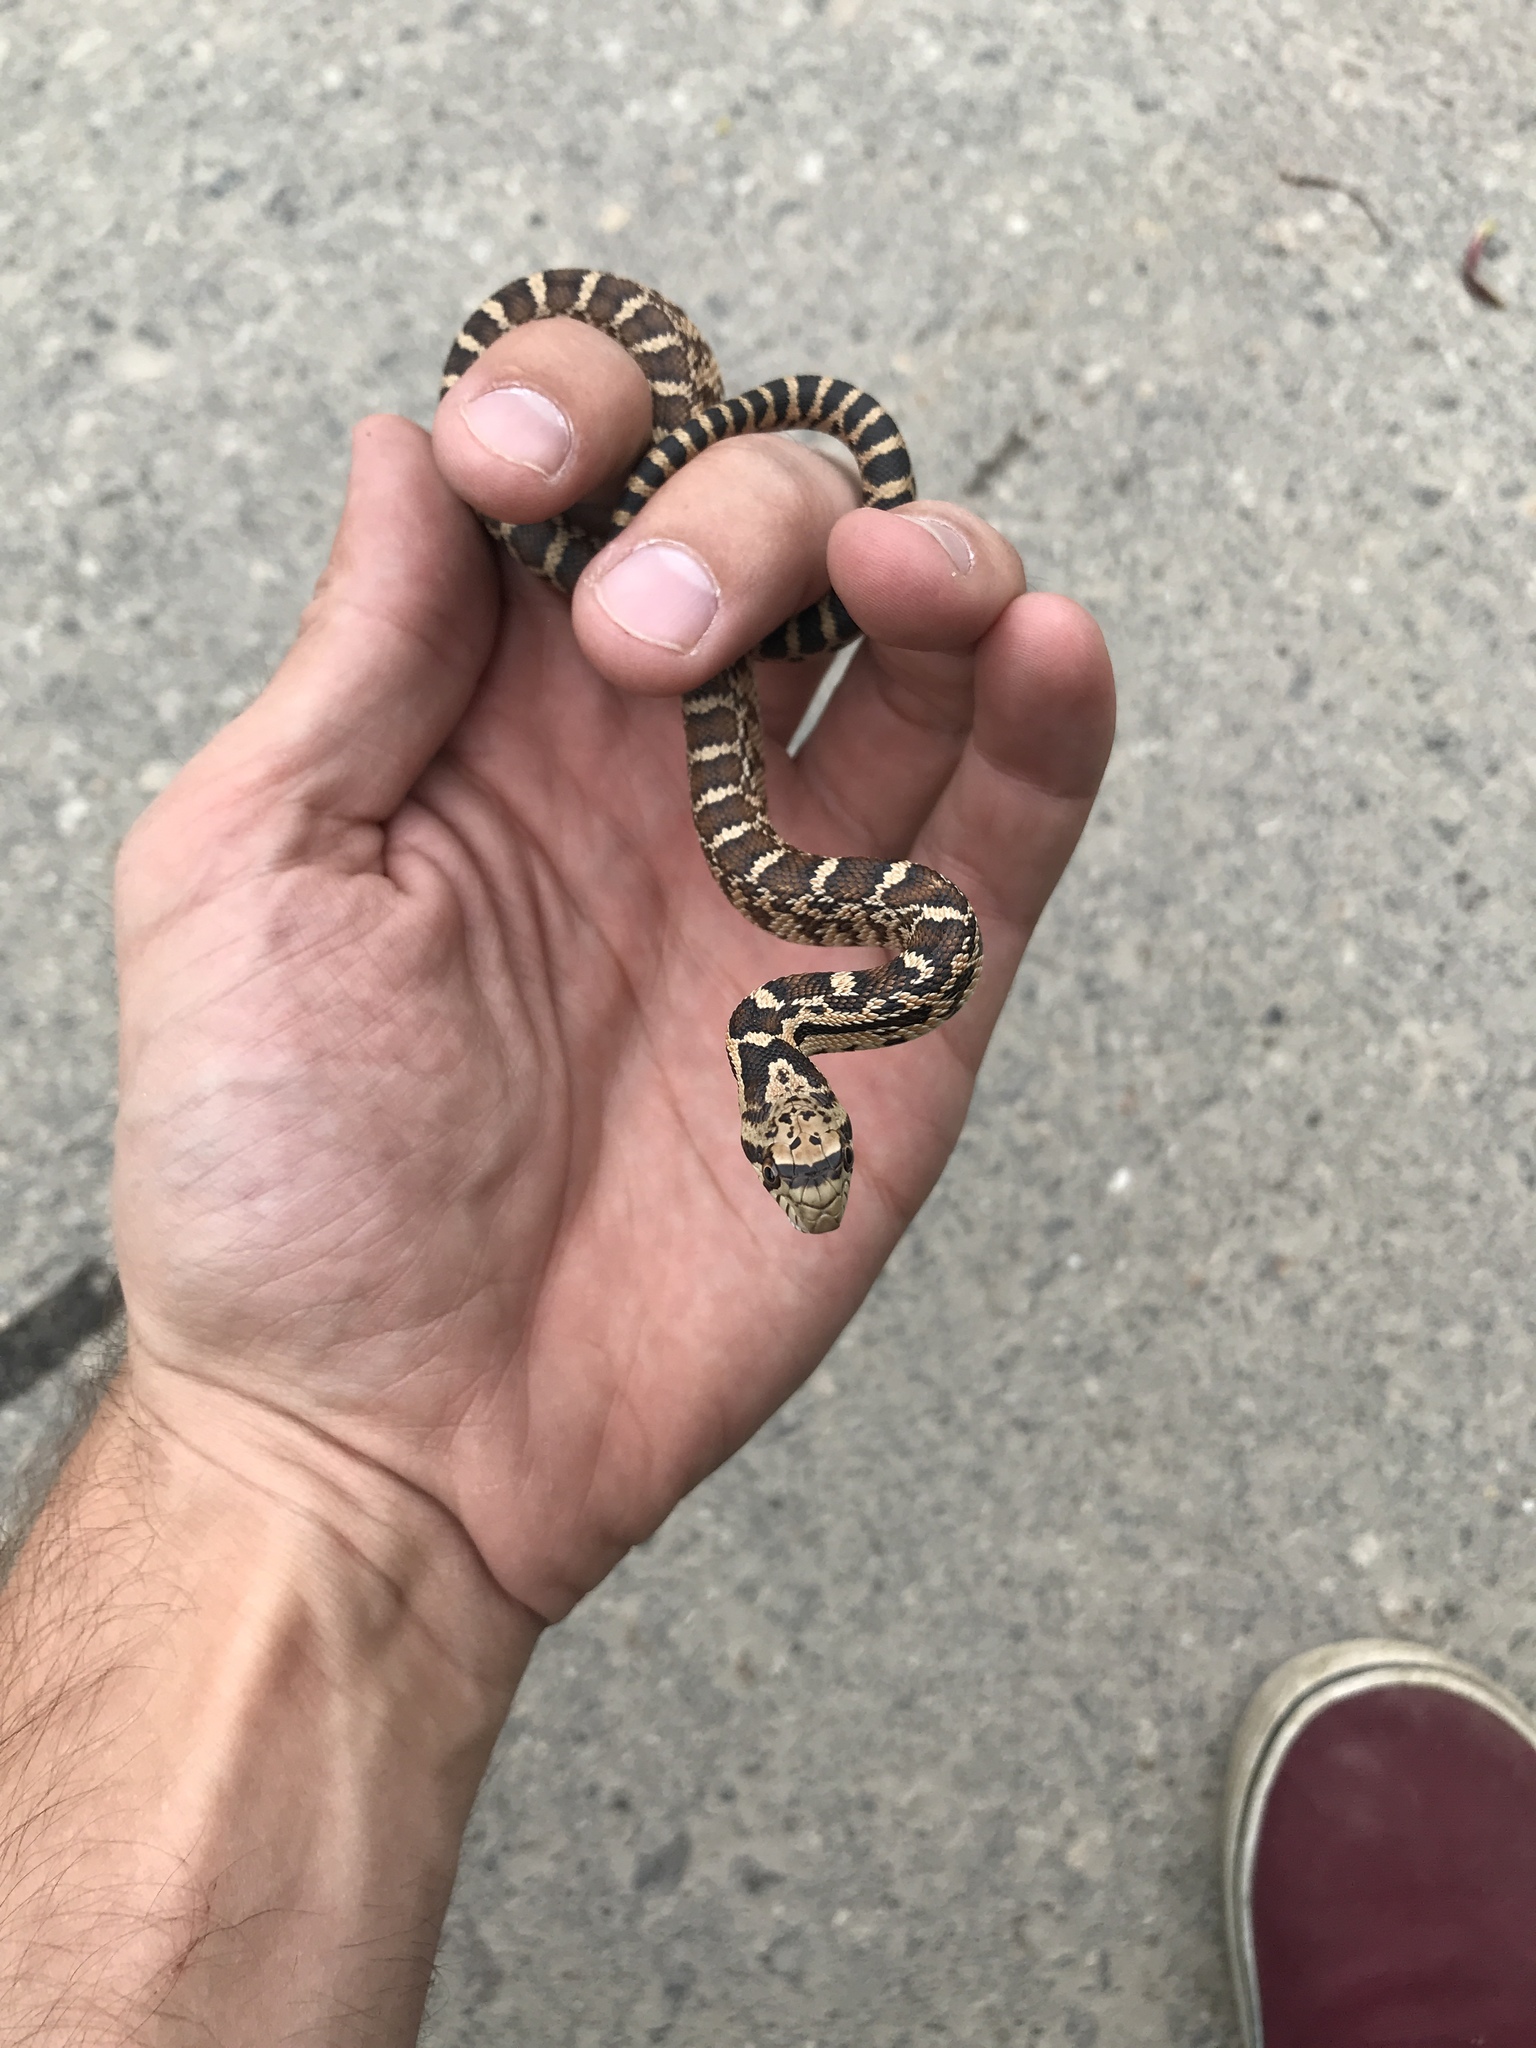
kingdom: Animalia
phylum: Chordata
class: Squamata
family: Colubridae
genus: Pituophis
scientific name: Pituophis catenifer
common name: Gopher snake
